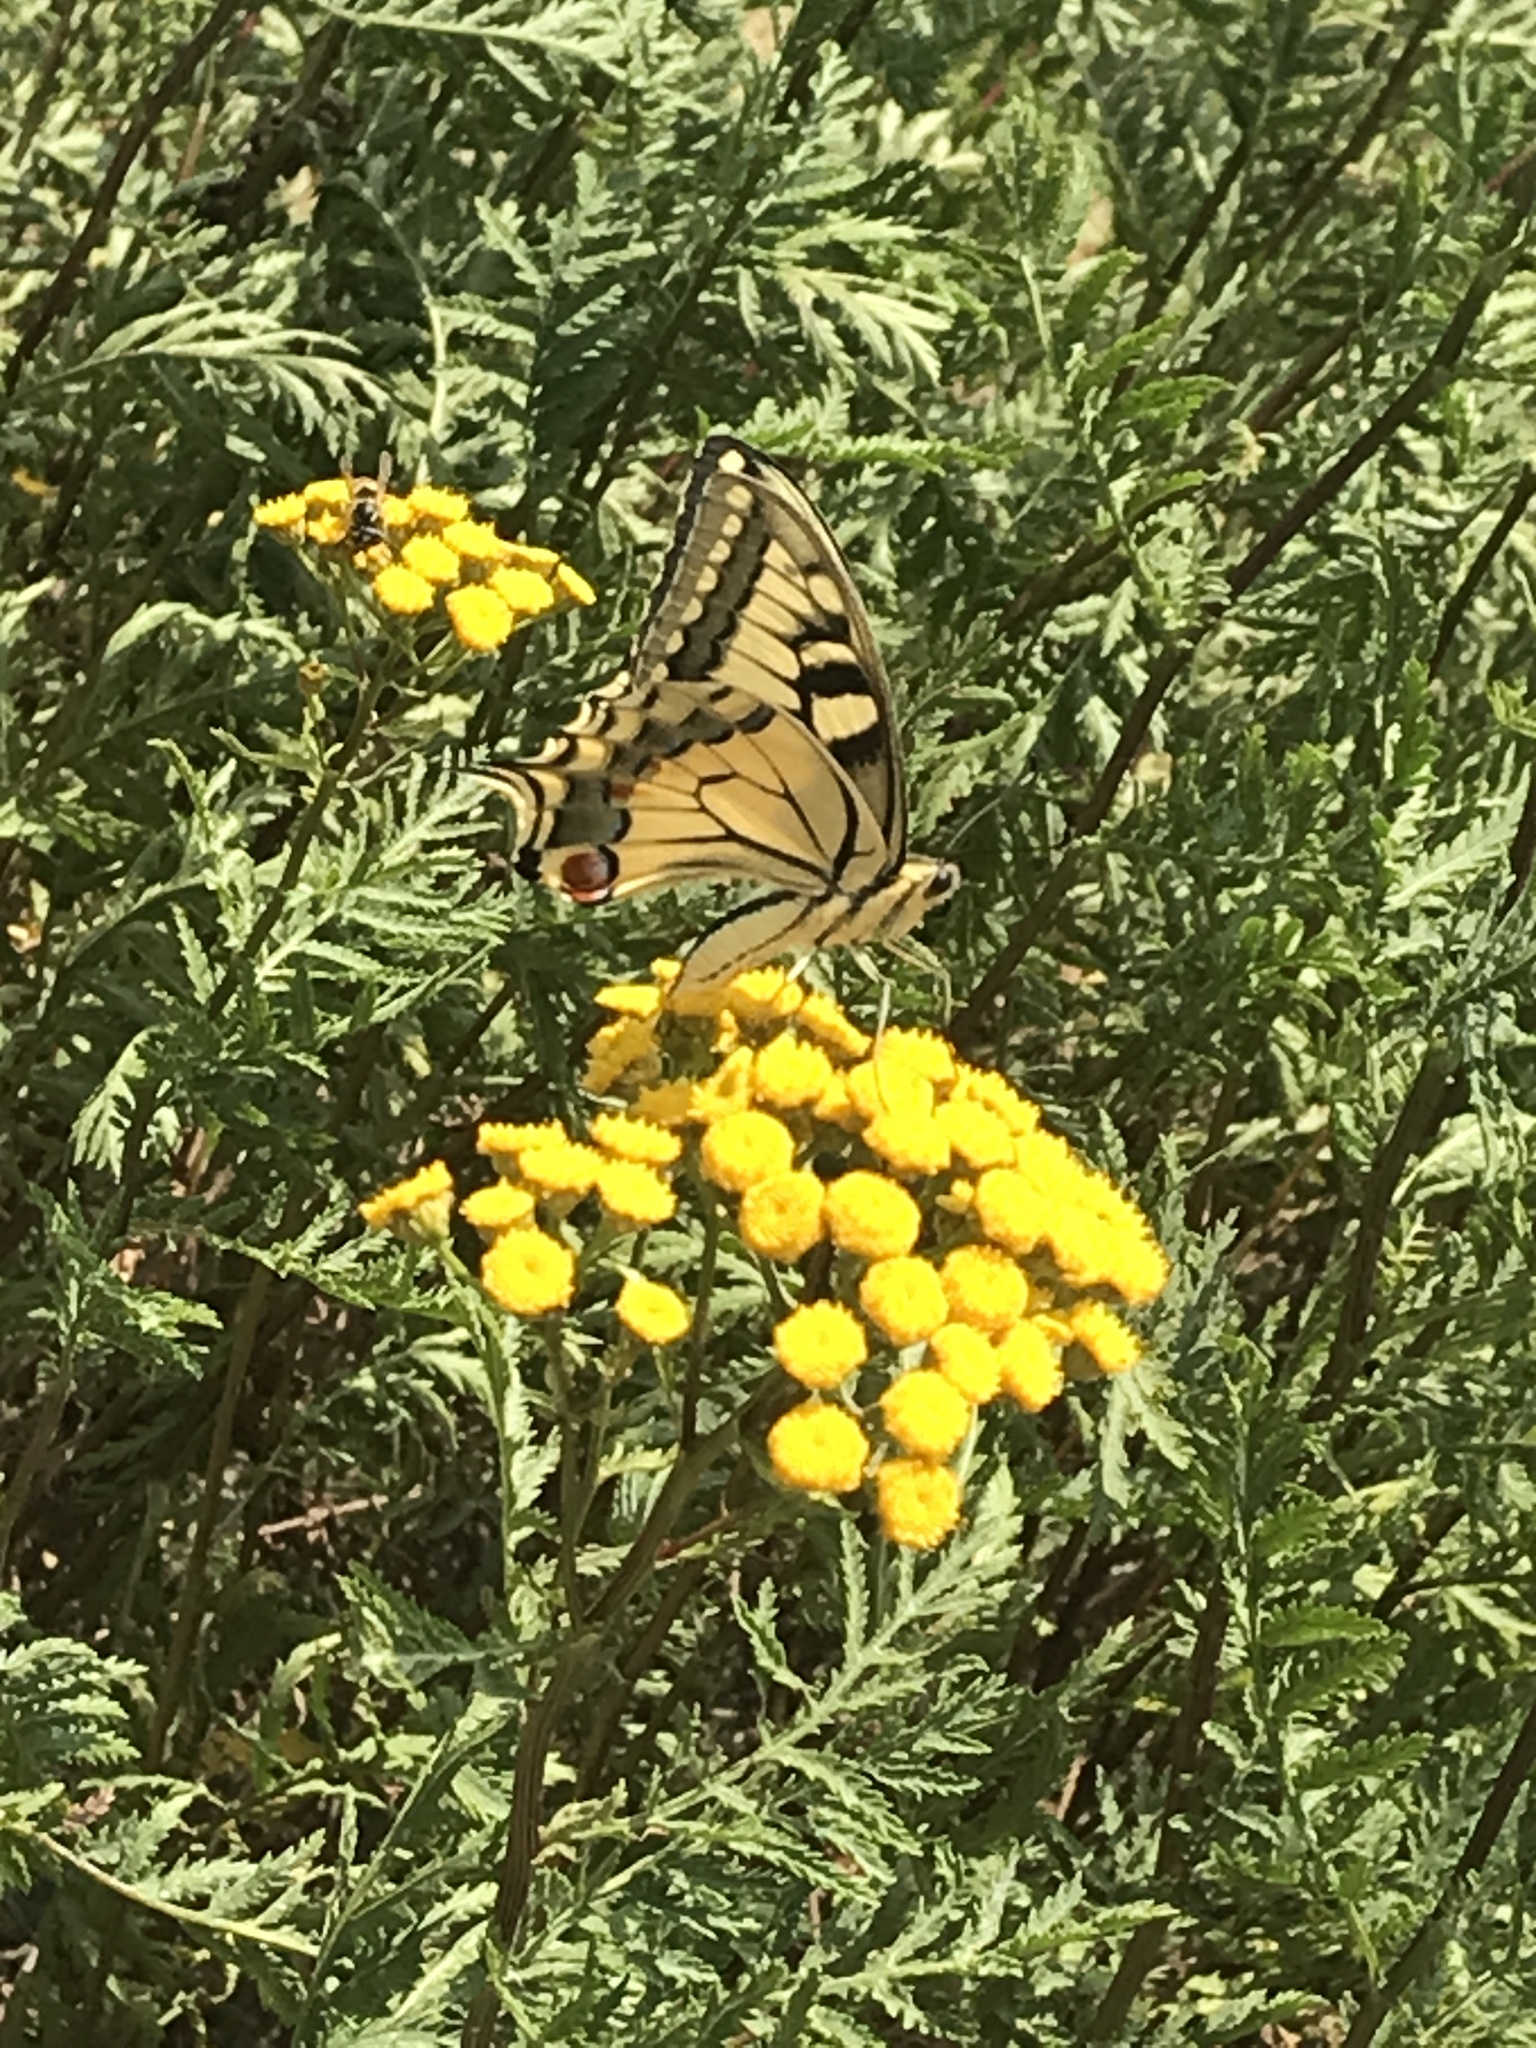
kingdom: Animalia
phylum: Arthropoda
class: Insecta
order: Lepidoptera
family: Papilionidae
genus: Papilio
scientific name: Papilio machaon
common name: Swallowtail
